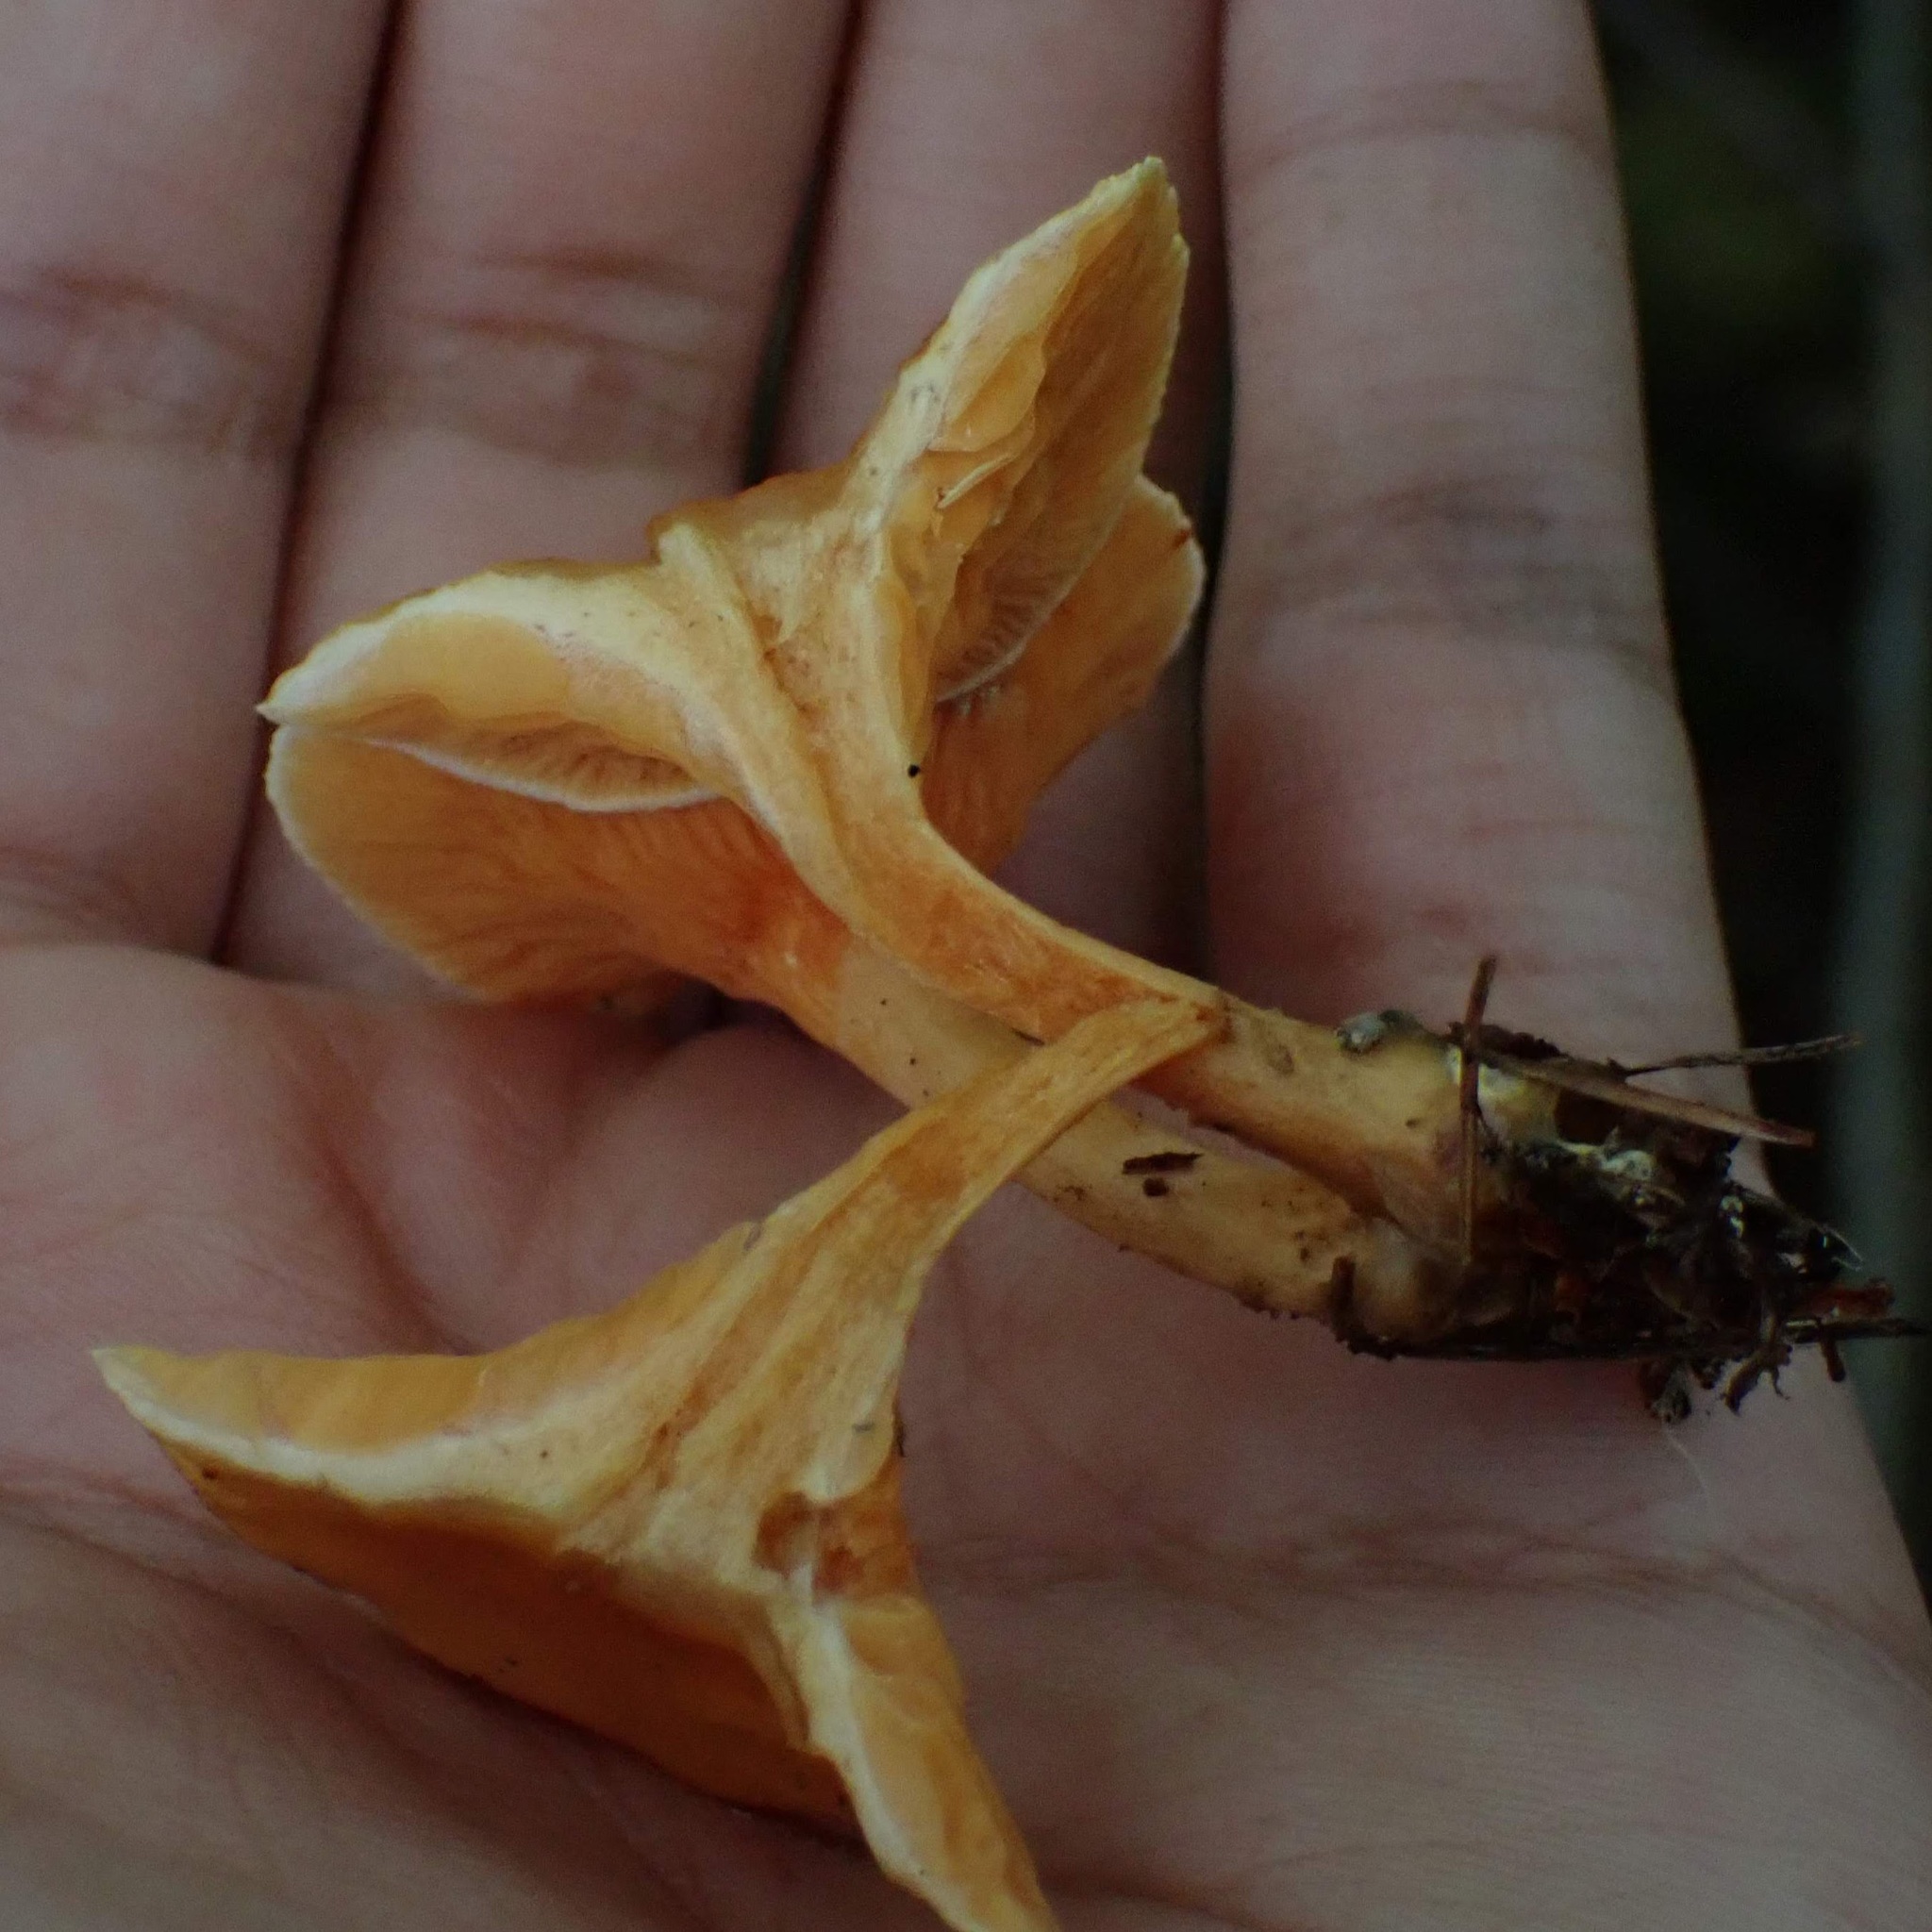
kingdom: Fungi
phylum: Basidiomycota
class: Agaricomycetes
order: Boletales
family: Hygrophoropsidaceae
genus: Hygrophoropsis
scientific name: Hygrophoropsis aurantiaca
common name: False chanterelle
